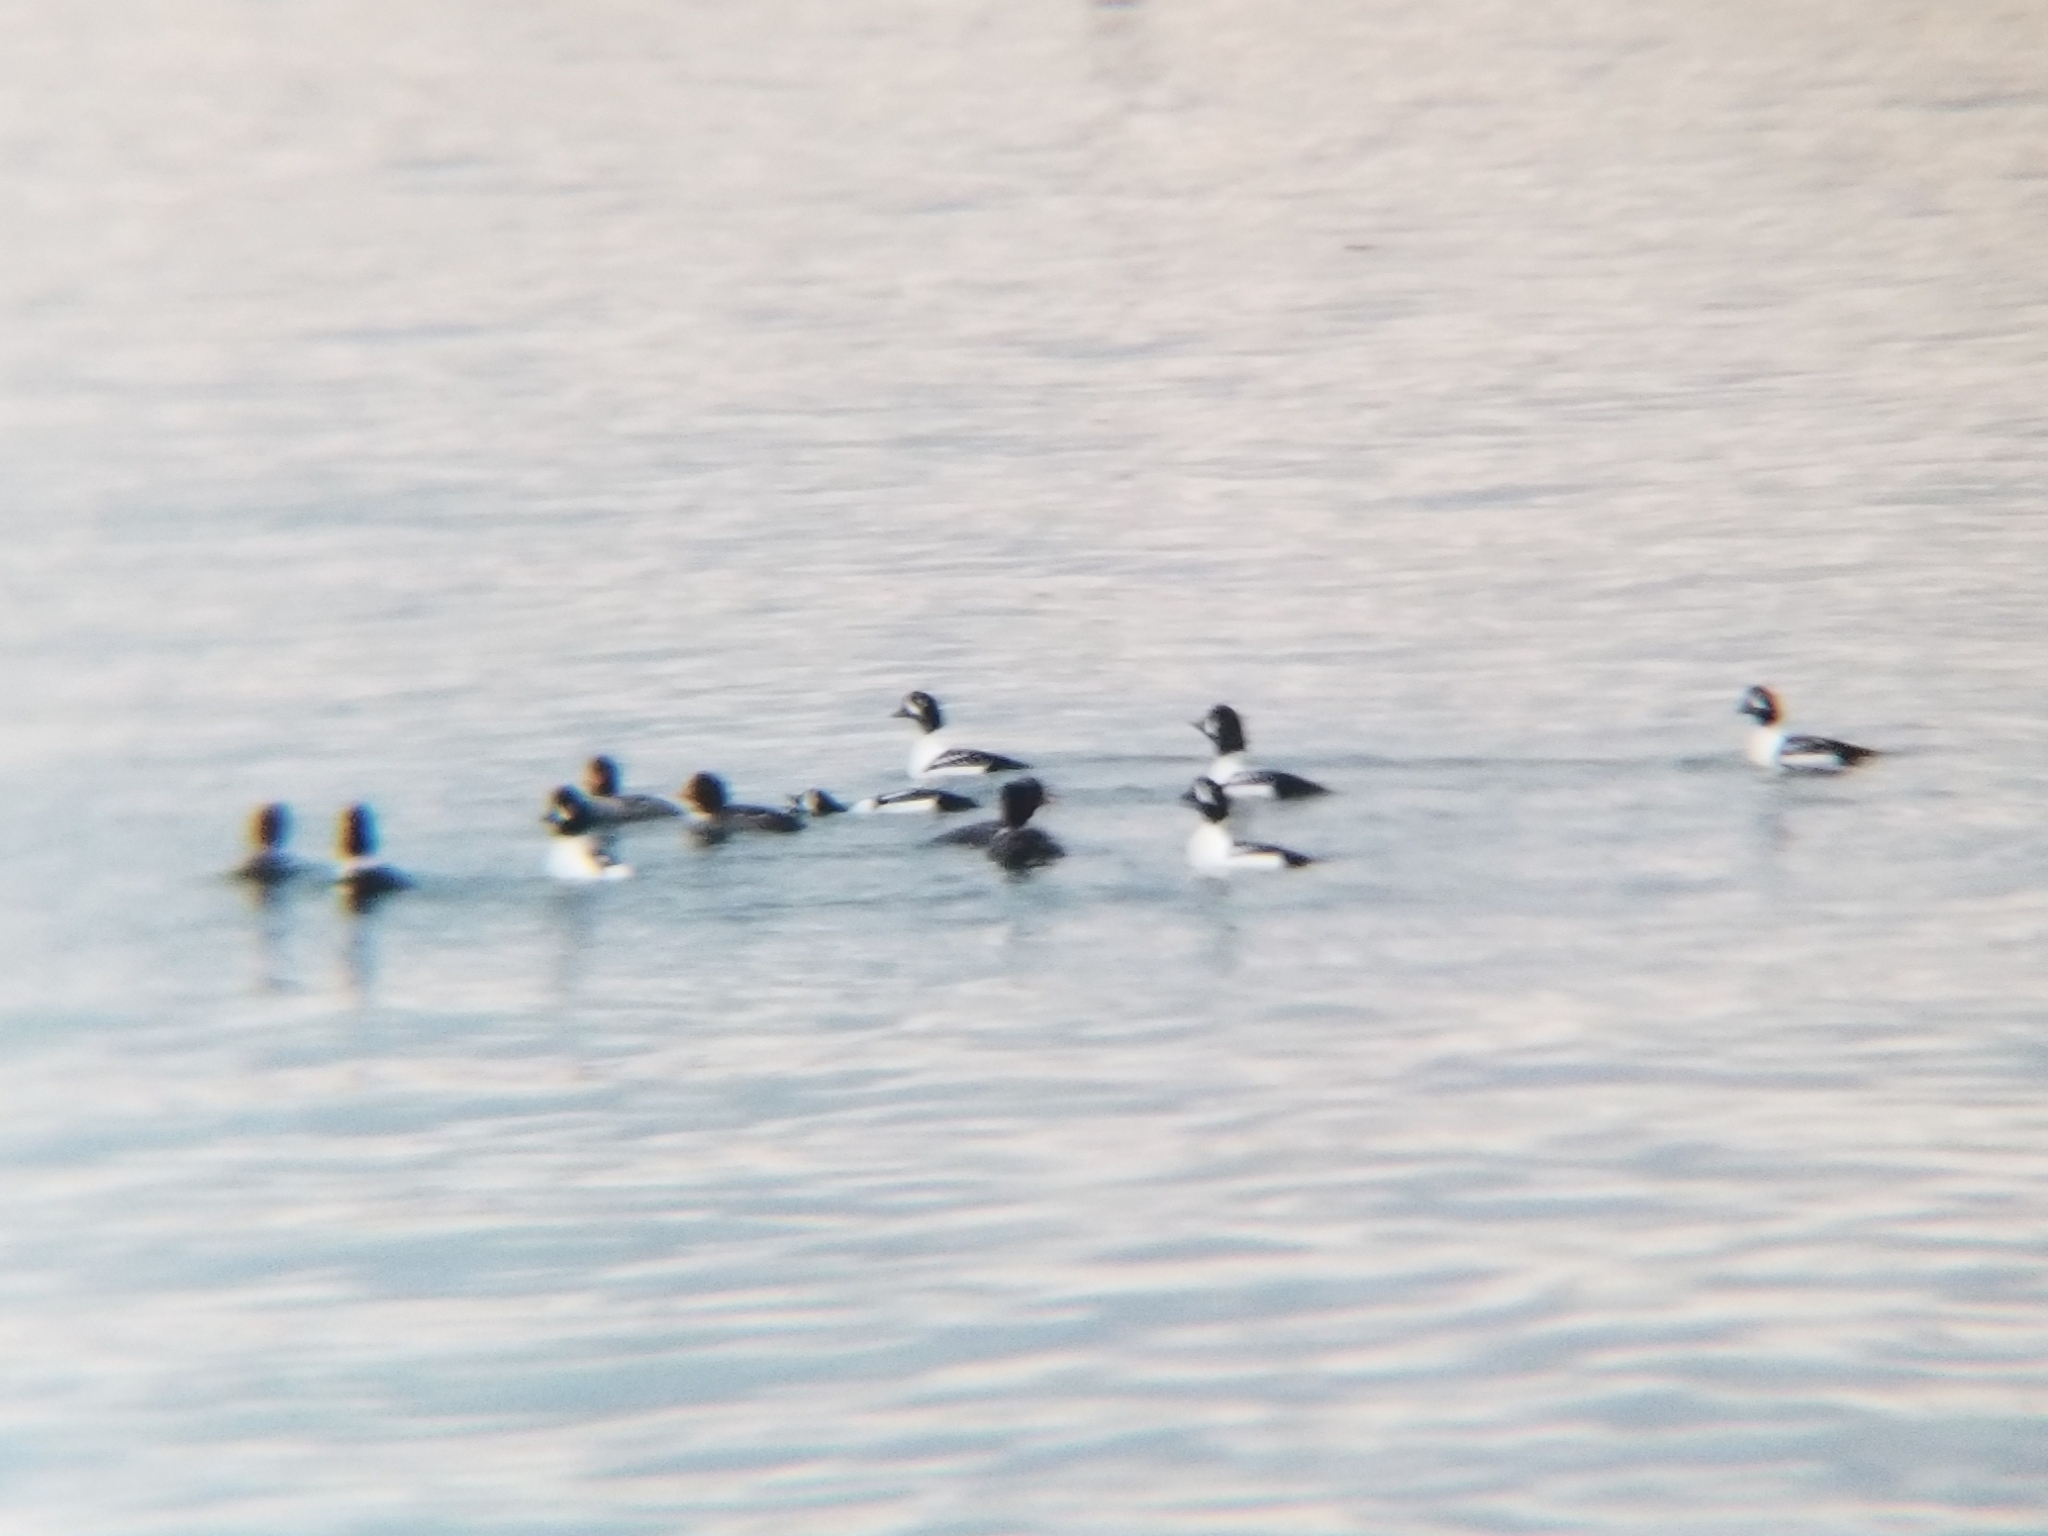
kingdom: Animalia
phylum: Chordata
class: Aves
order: Anseriformes
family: Anatidae
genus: Bucephala
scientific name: Bucephala islandica
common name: Barrow's goldeneye
